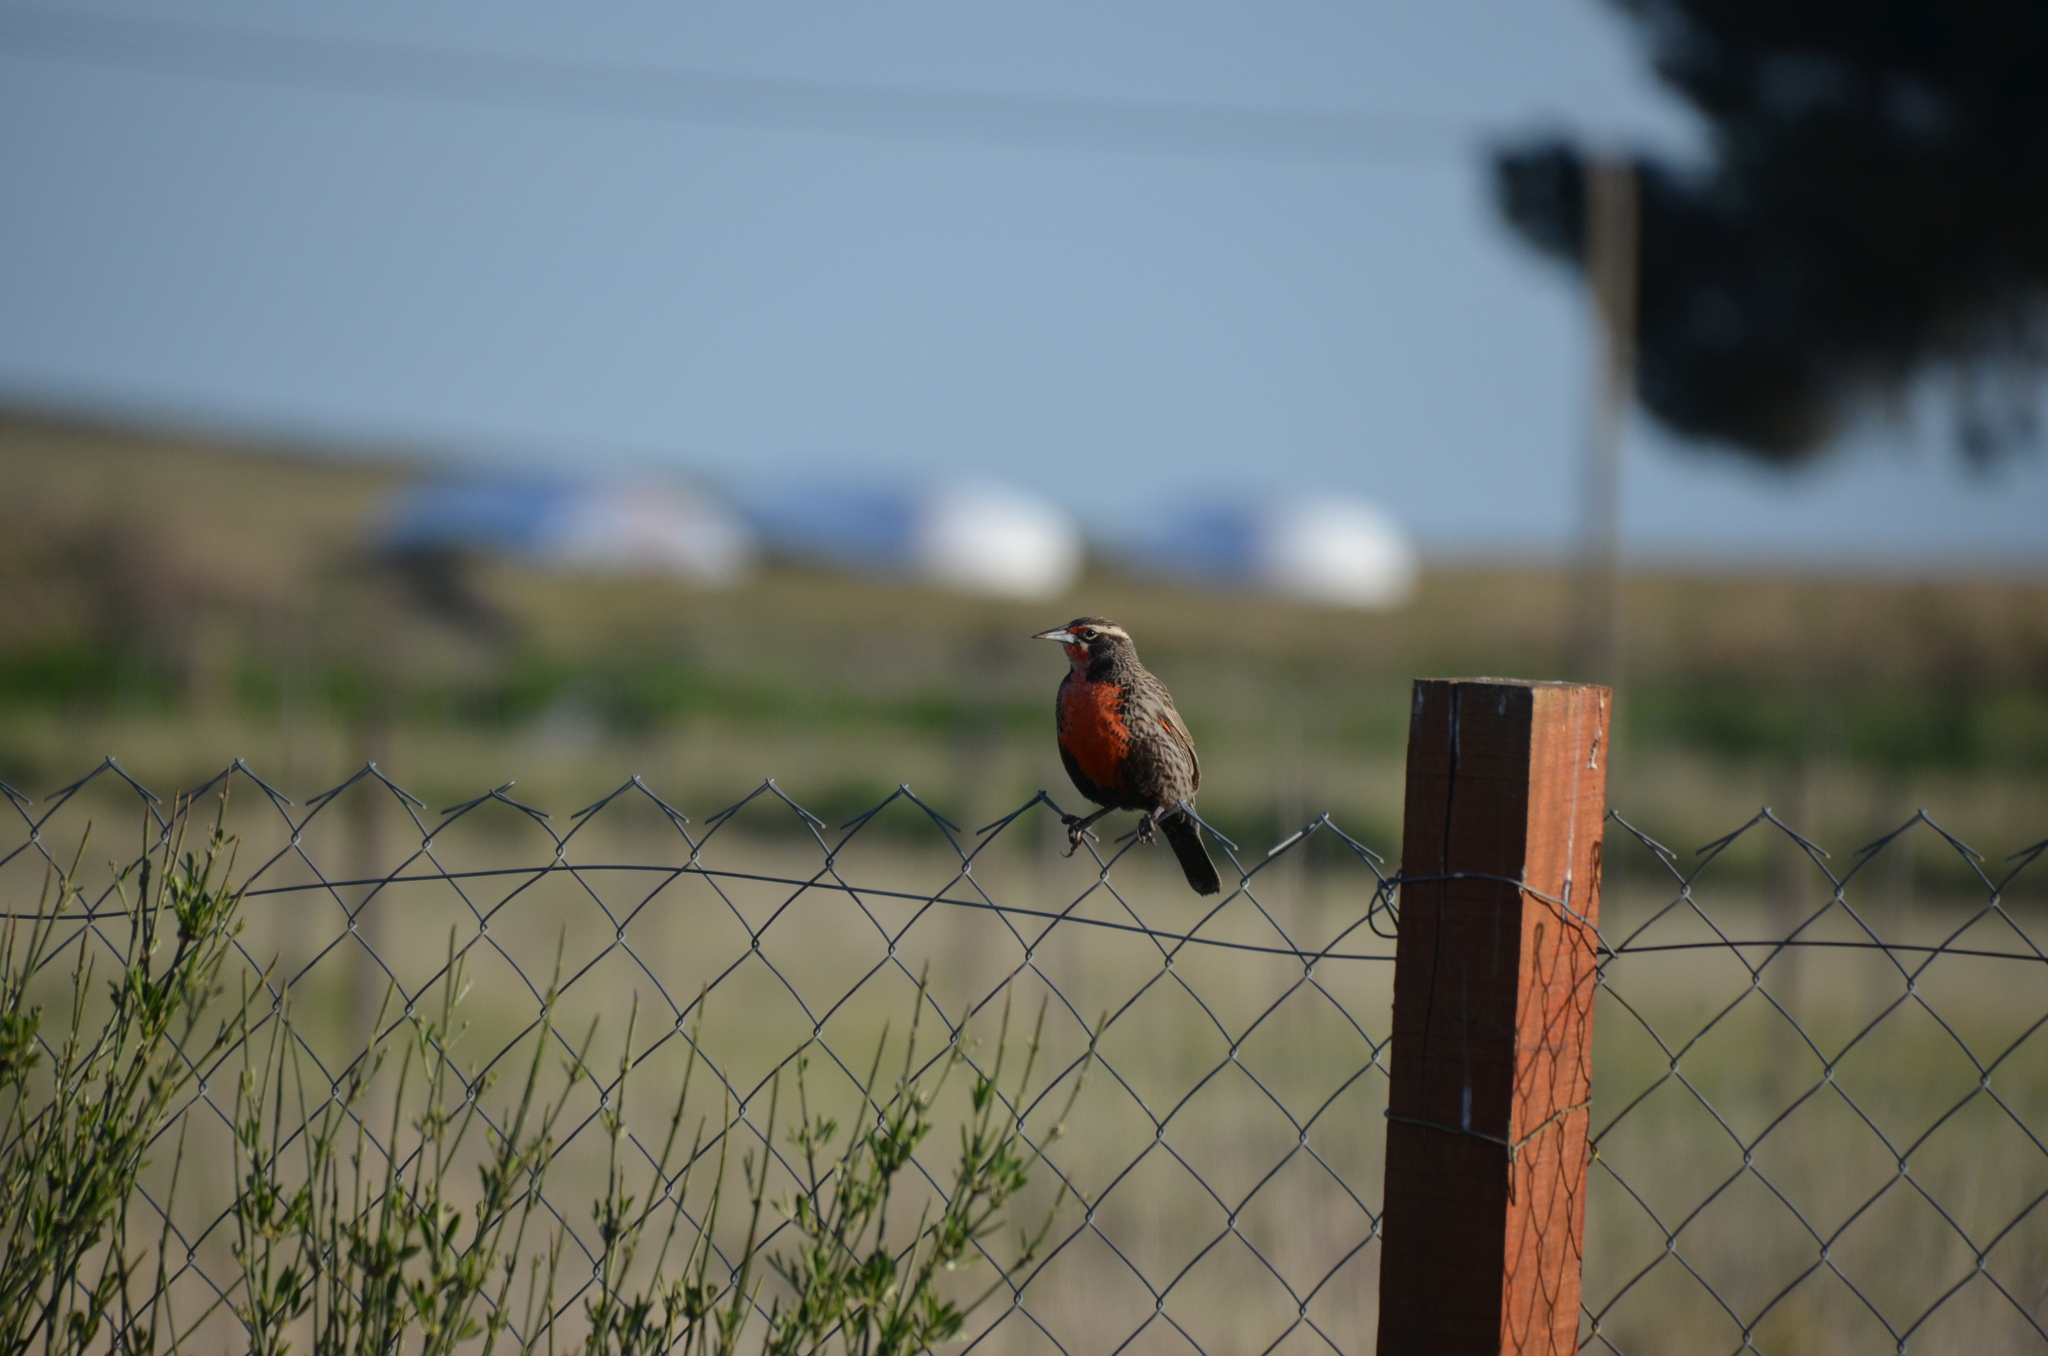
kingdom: Animalia
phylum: Chordata
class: Aves
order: Passeriformes
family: Icteridae
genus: Sturnella
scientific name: Sturnella loyca
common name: Long-tailed meadowlark
